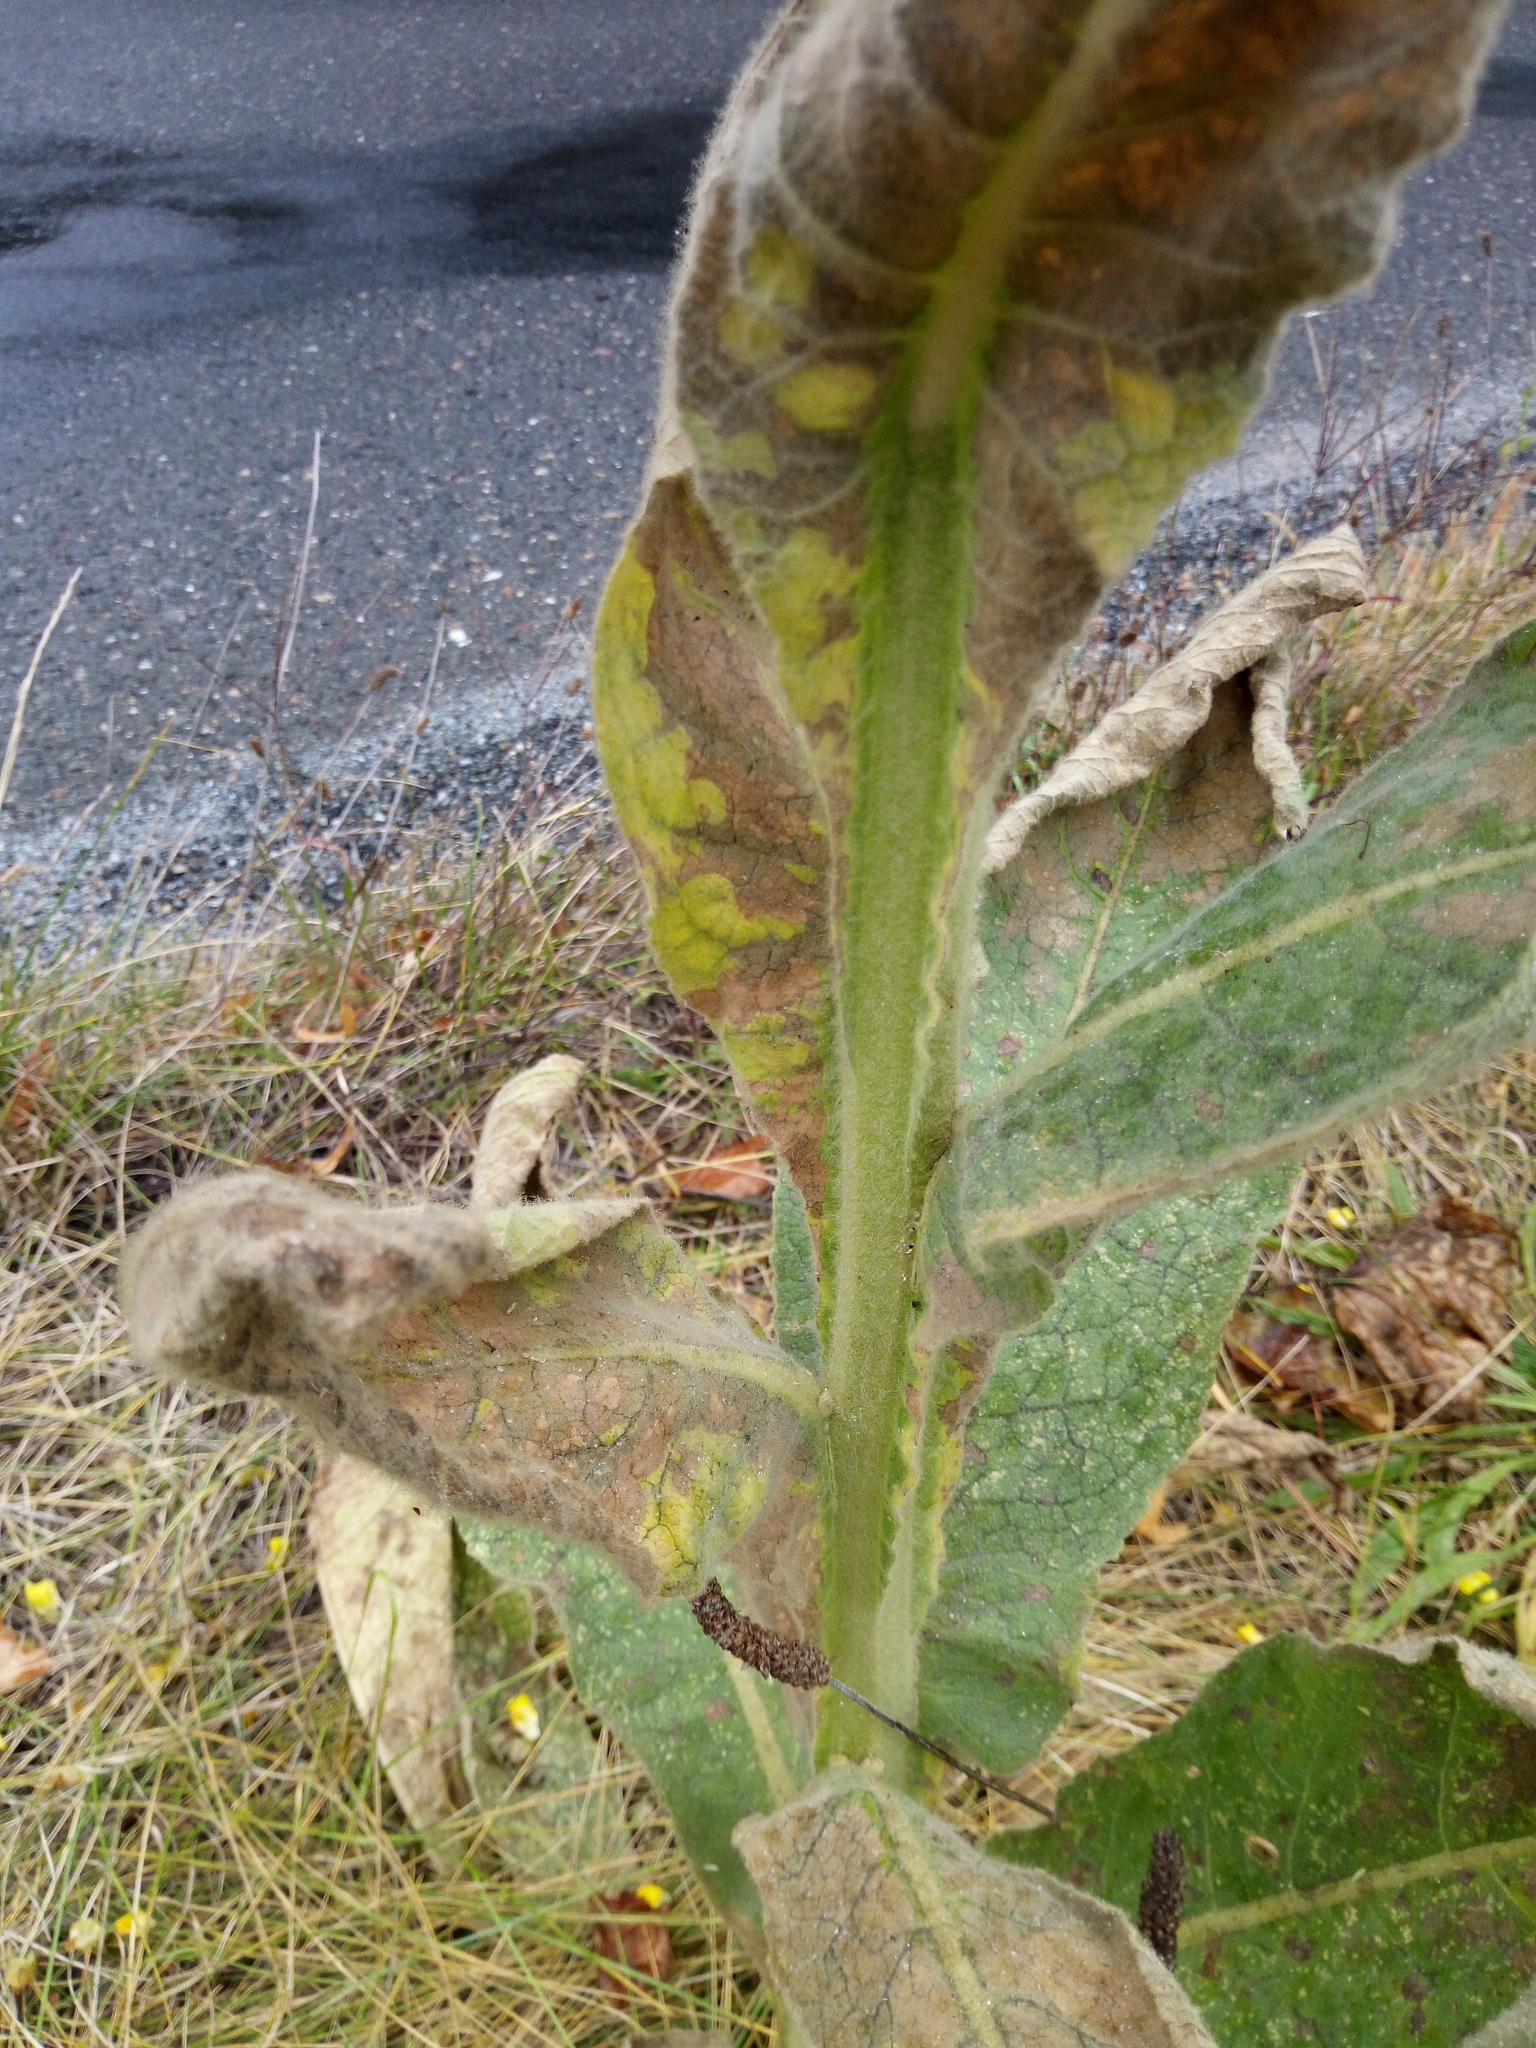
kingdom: Plantae
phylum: Tracheophyta
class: Magnoliopsida
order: Lamiales
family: Scrophulariaceae
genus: Verbascum
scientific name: Verbascum thapsus
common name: Common mullein
